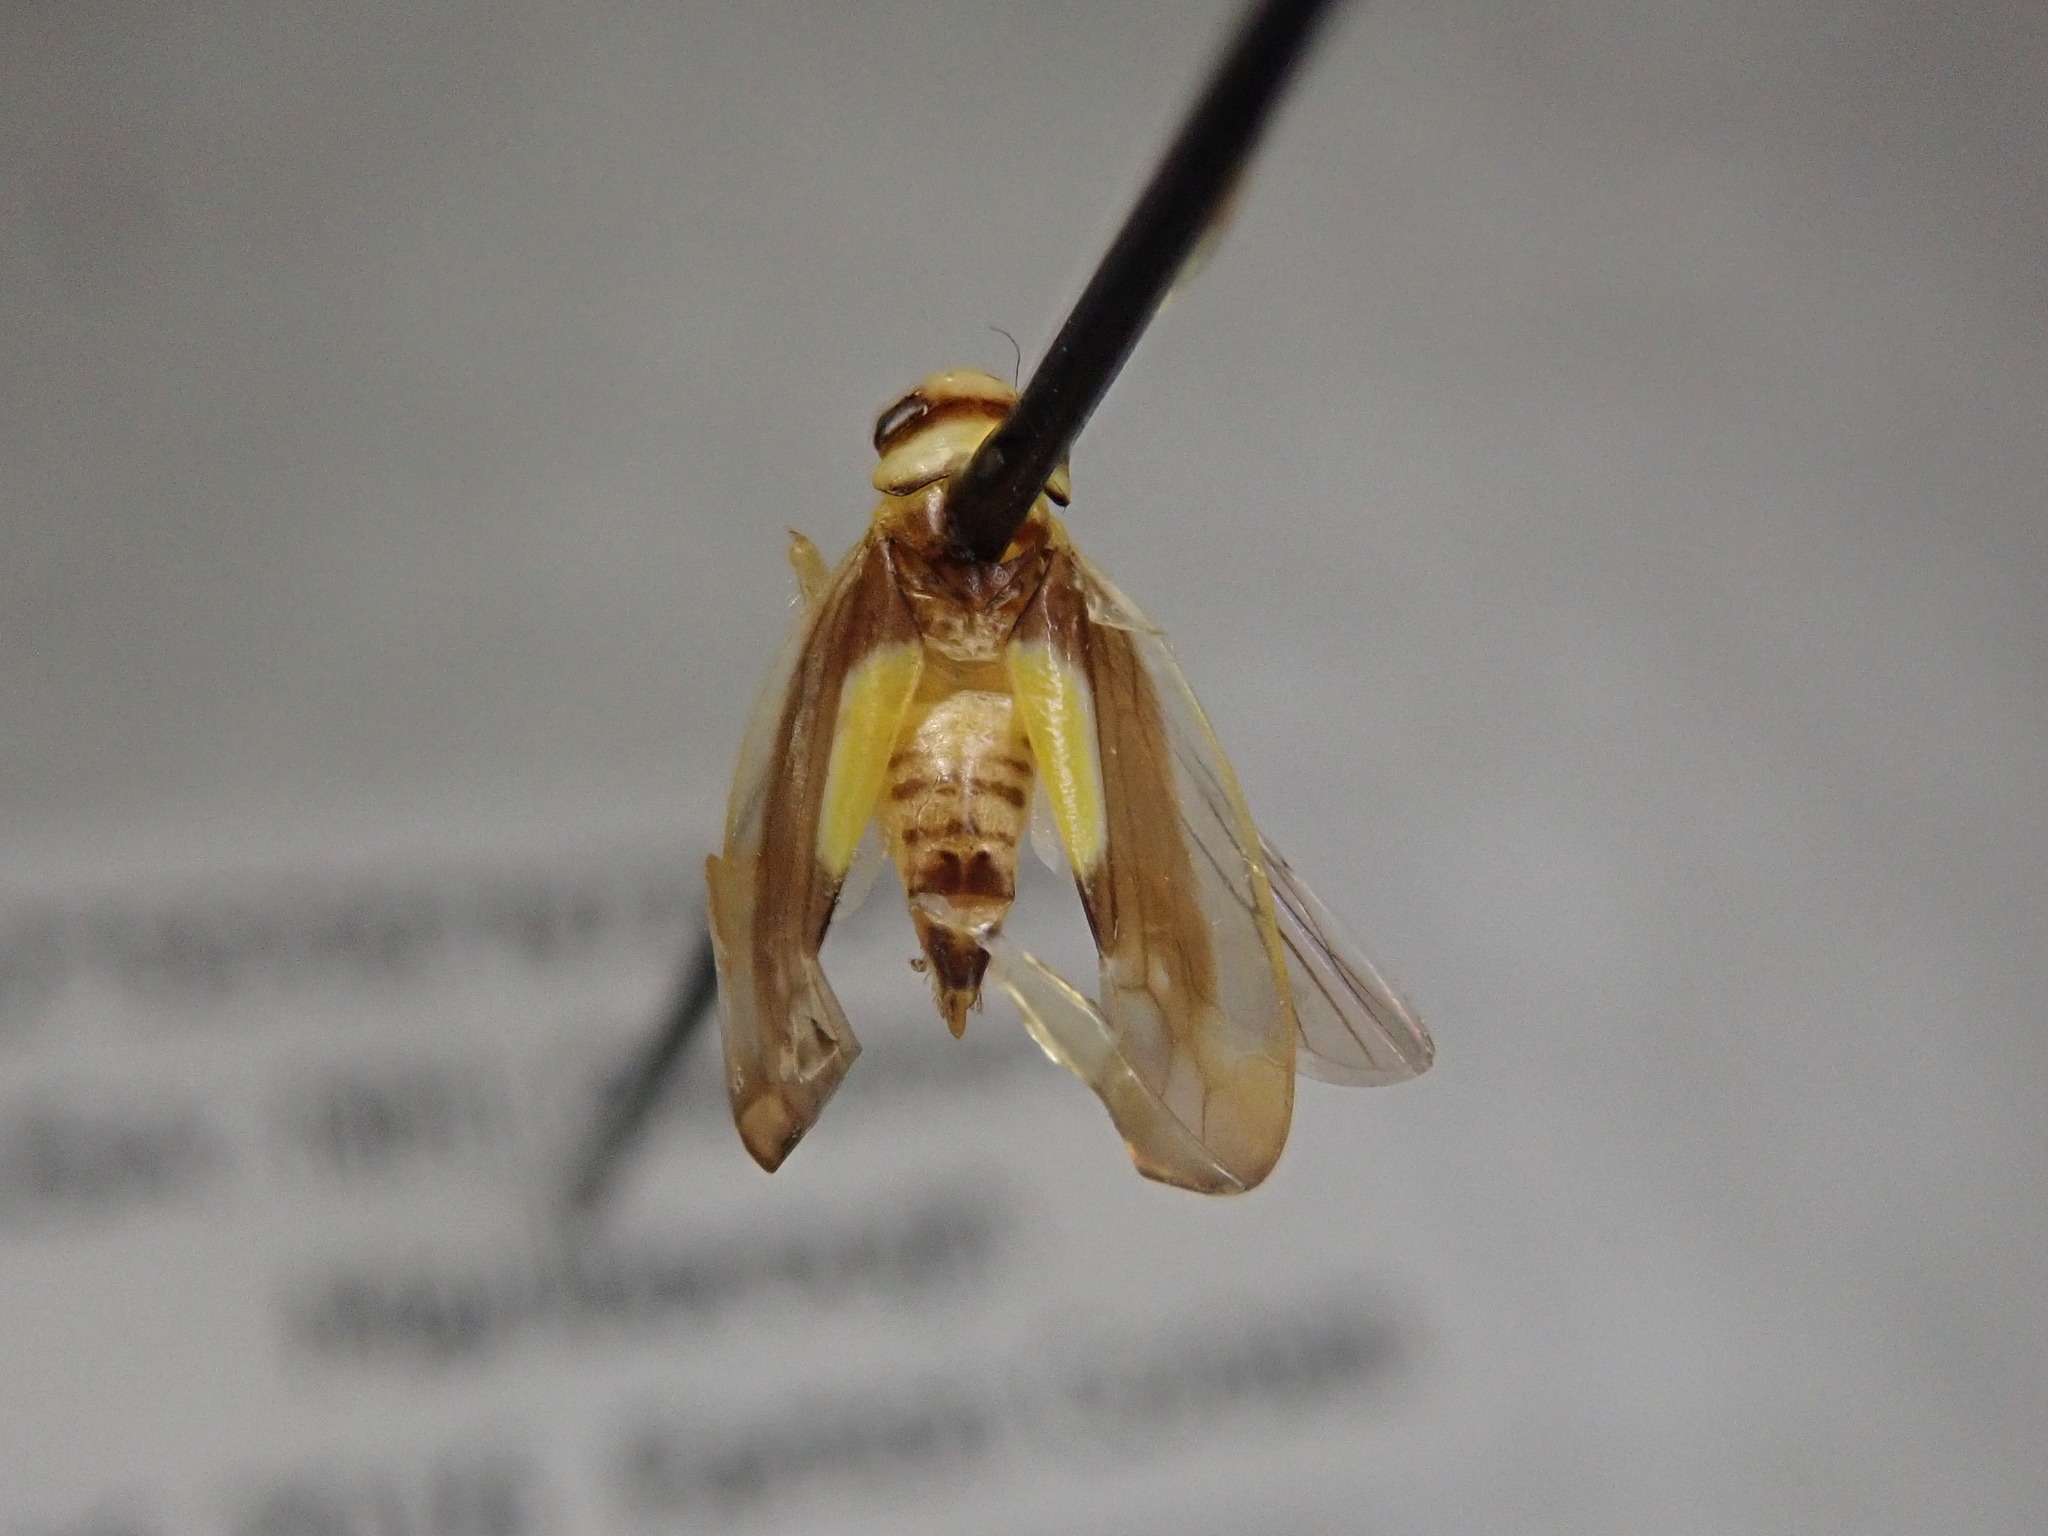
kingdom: Animalia
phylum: Arthropoda
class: Insecta
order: Hemiptera
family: Cicadellidae
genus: Colladonus
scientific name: Colladonus clitellarius
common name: The saddleback leafhopper
